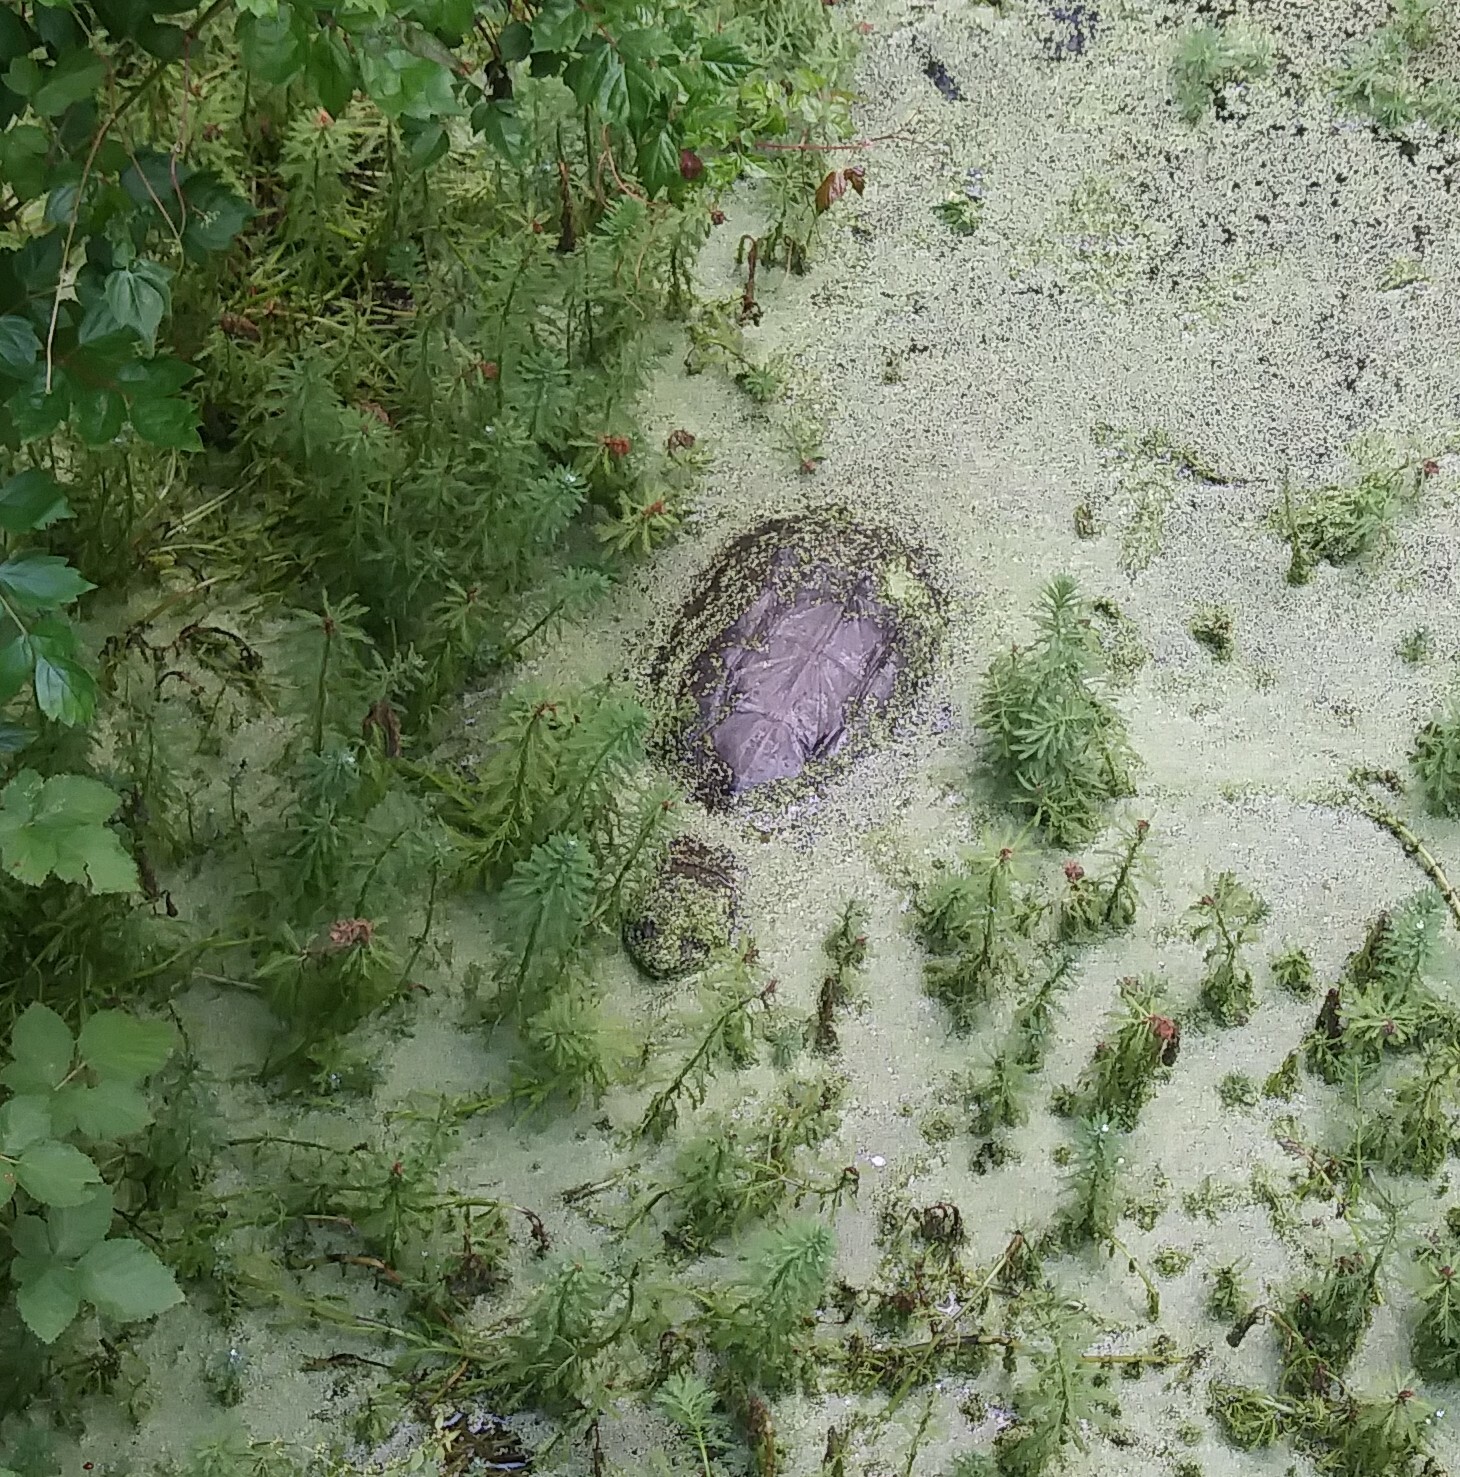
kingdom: Animalia
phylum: Chordata
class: Testudines
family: Chelydridae
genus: Chelydra
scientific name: Chelydra serpentina
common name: Common snapping turtle
